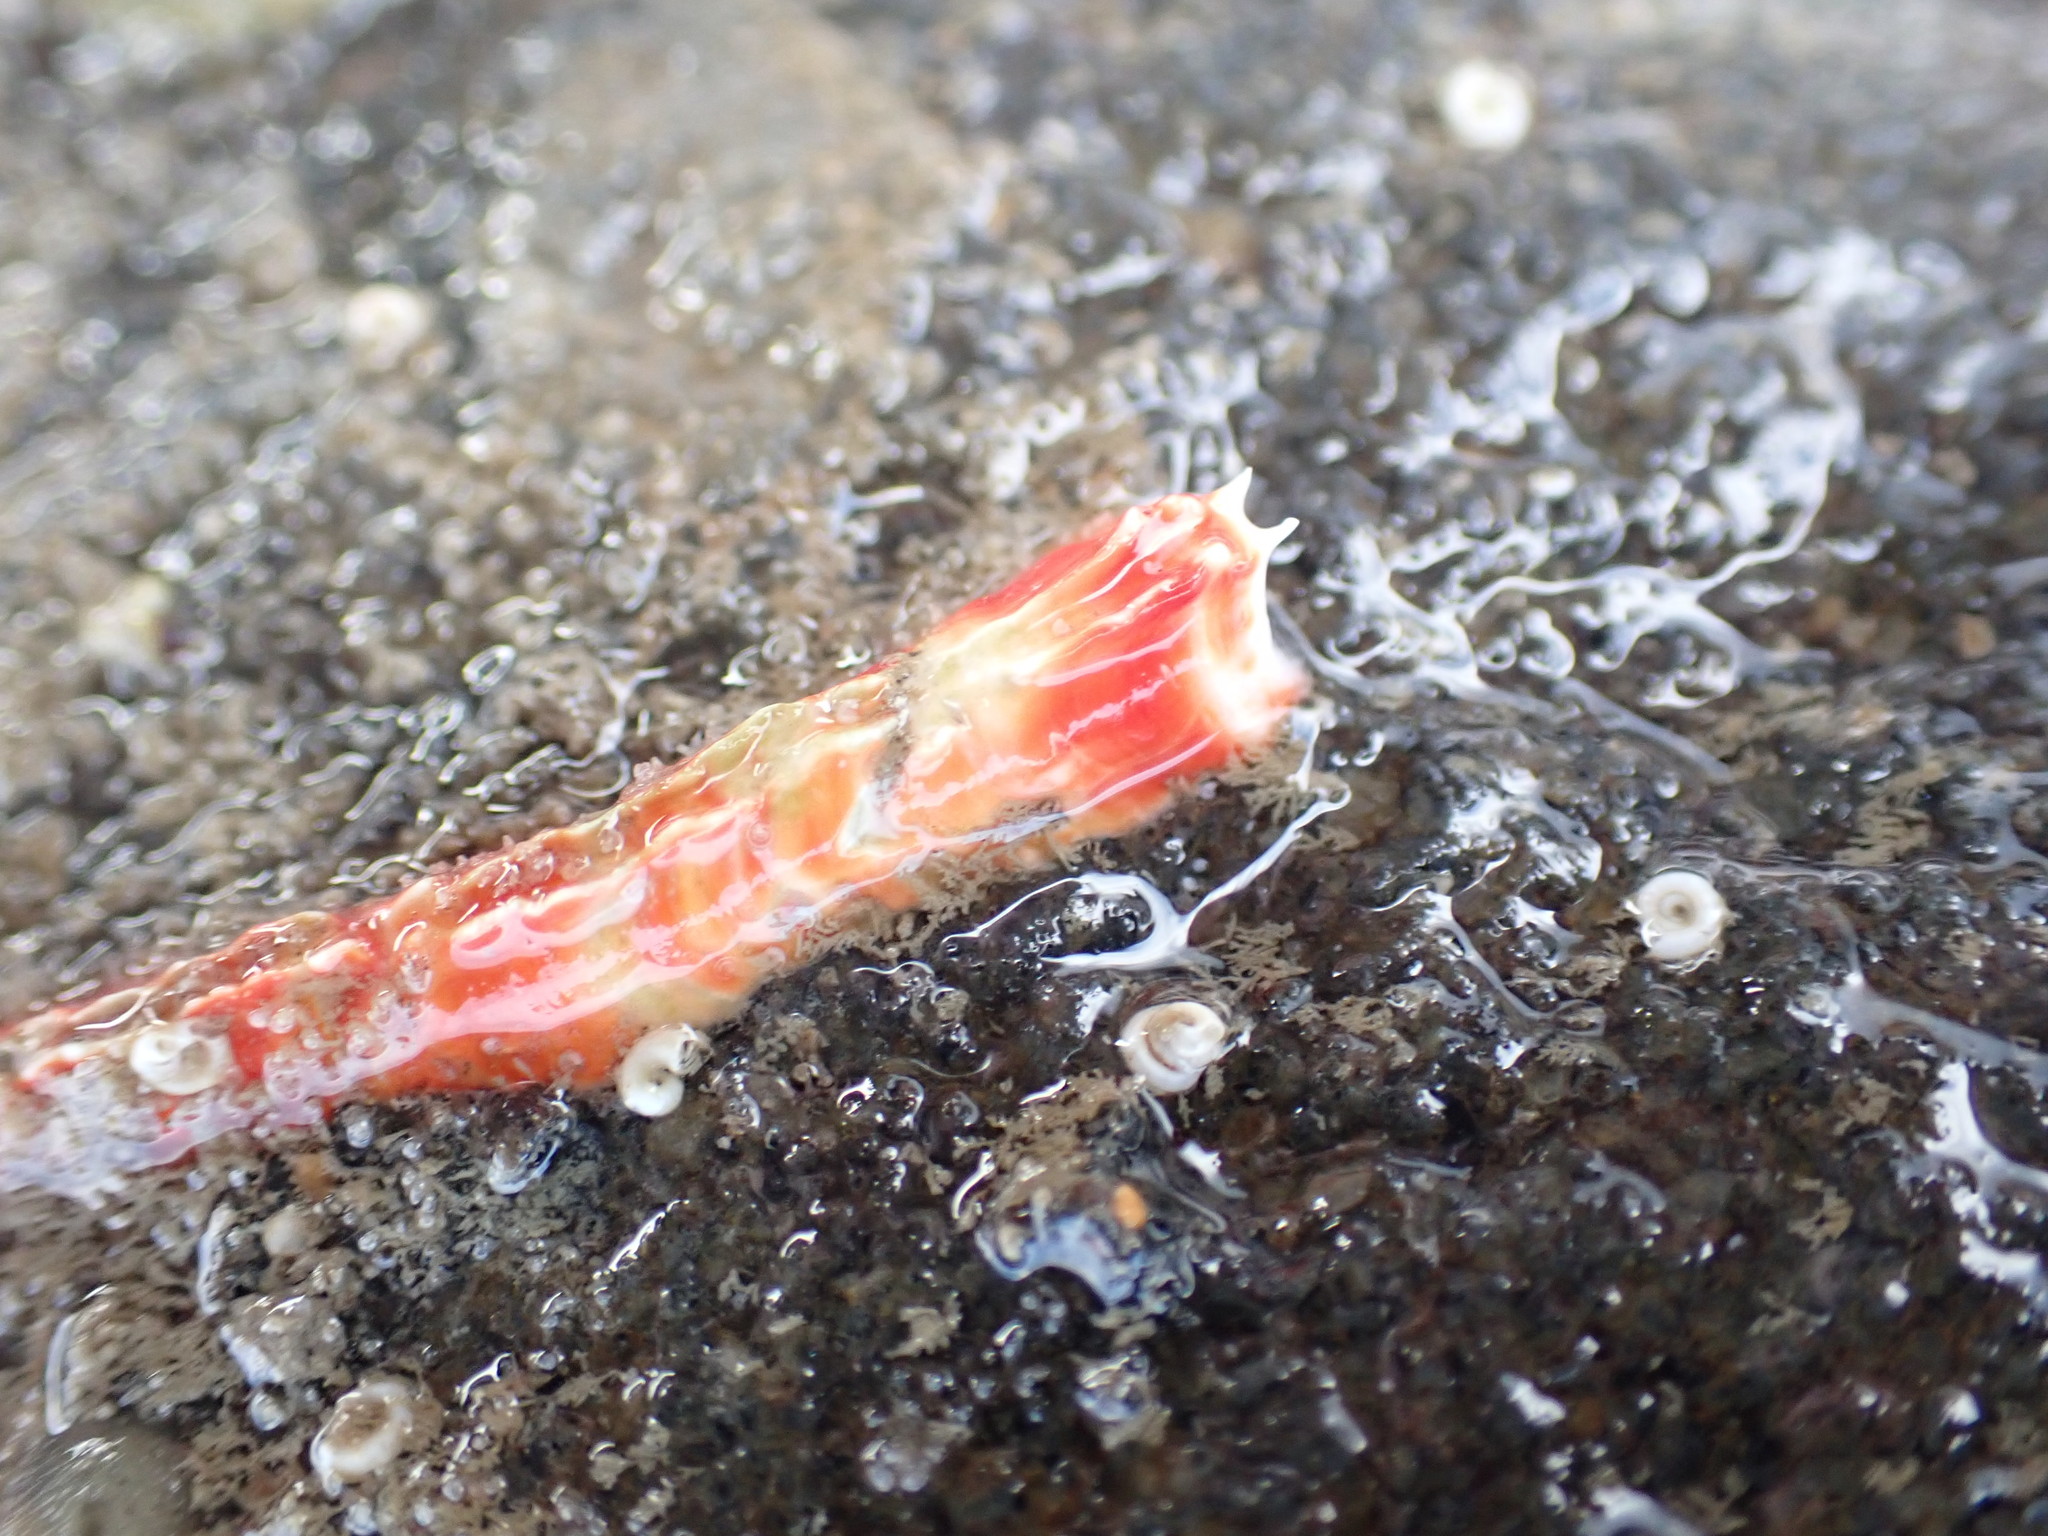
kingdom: Animalia
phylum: Annelida
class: Polychaeta
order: Sabellida
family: Serpulidae
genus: Galeolaria
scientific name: Galeolaria hystrix
